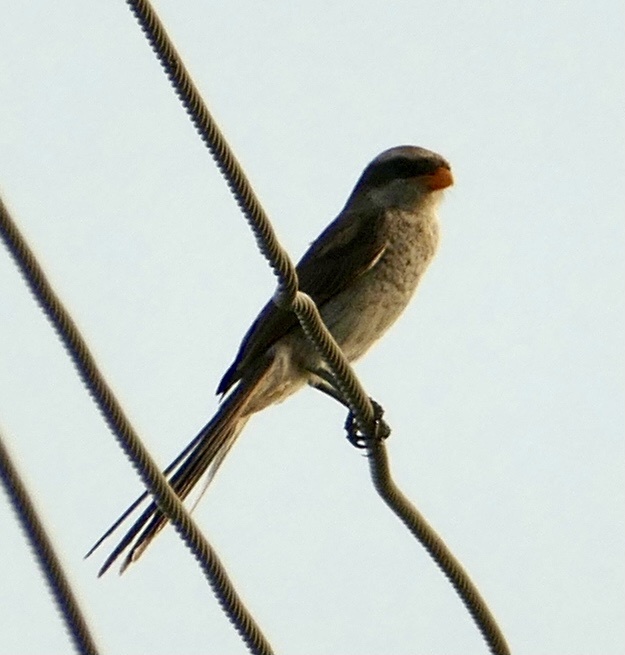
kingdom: Animalia
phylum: Chordata
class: Aves
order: Passeriformes
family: Laniidae
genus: Corvinella
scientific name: Corvinella corvina
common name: Yellow-billed shrike
